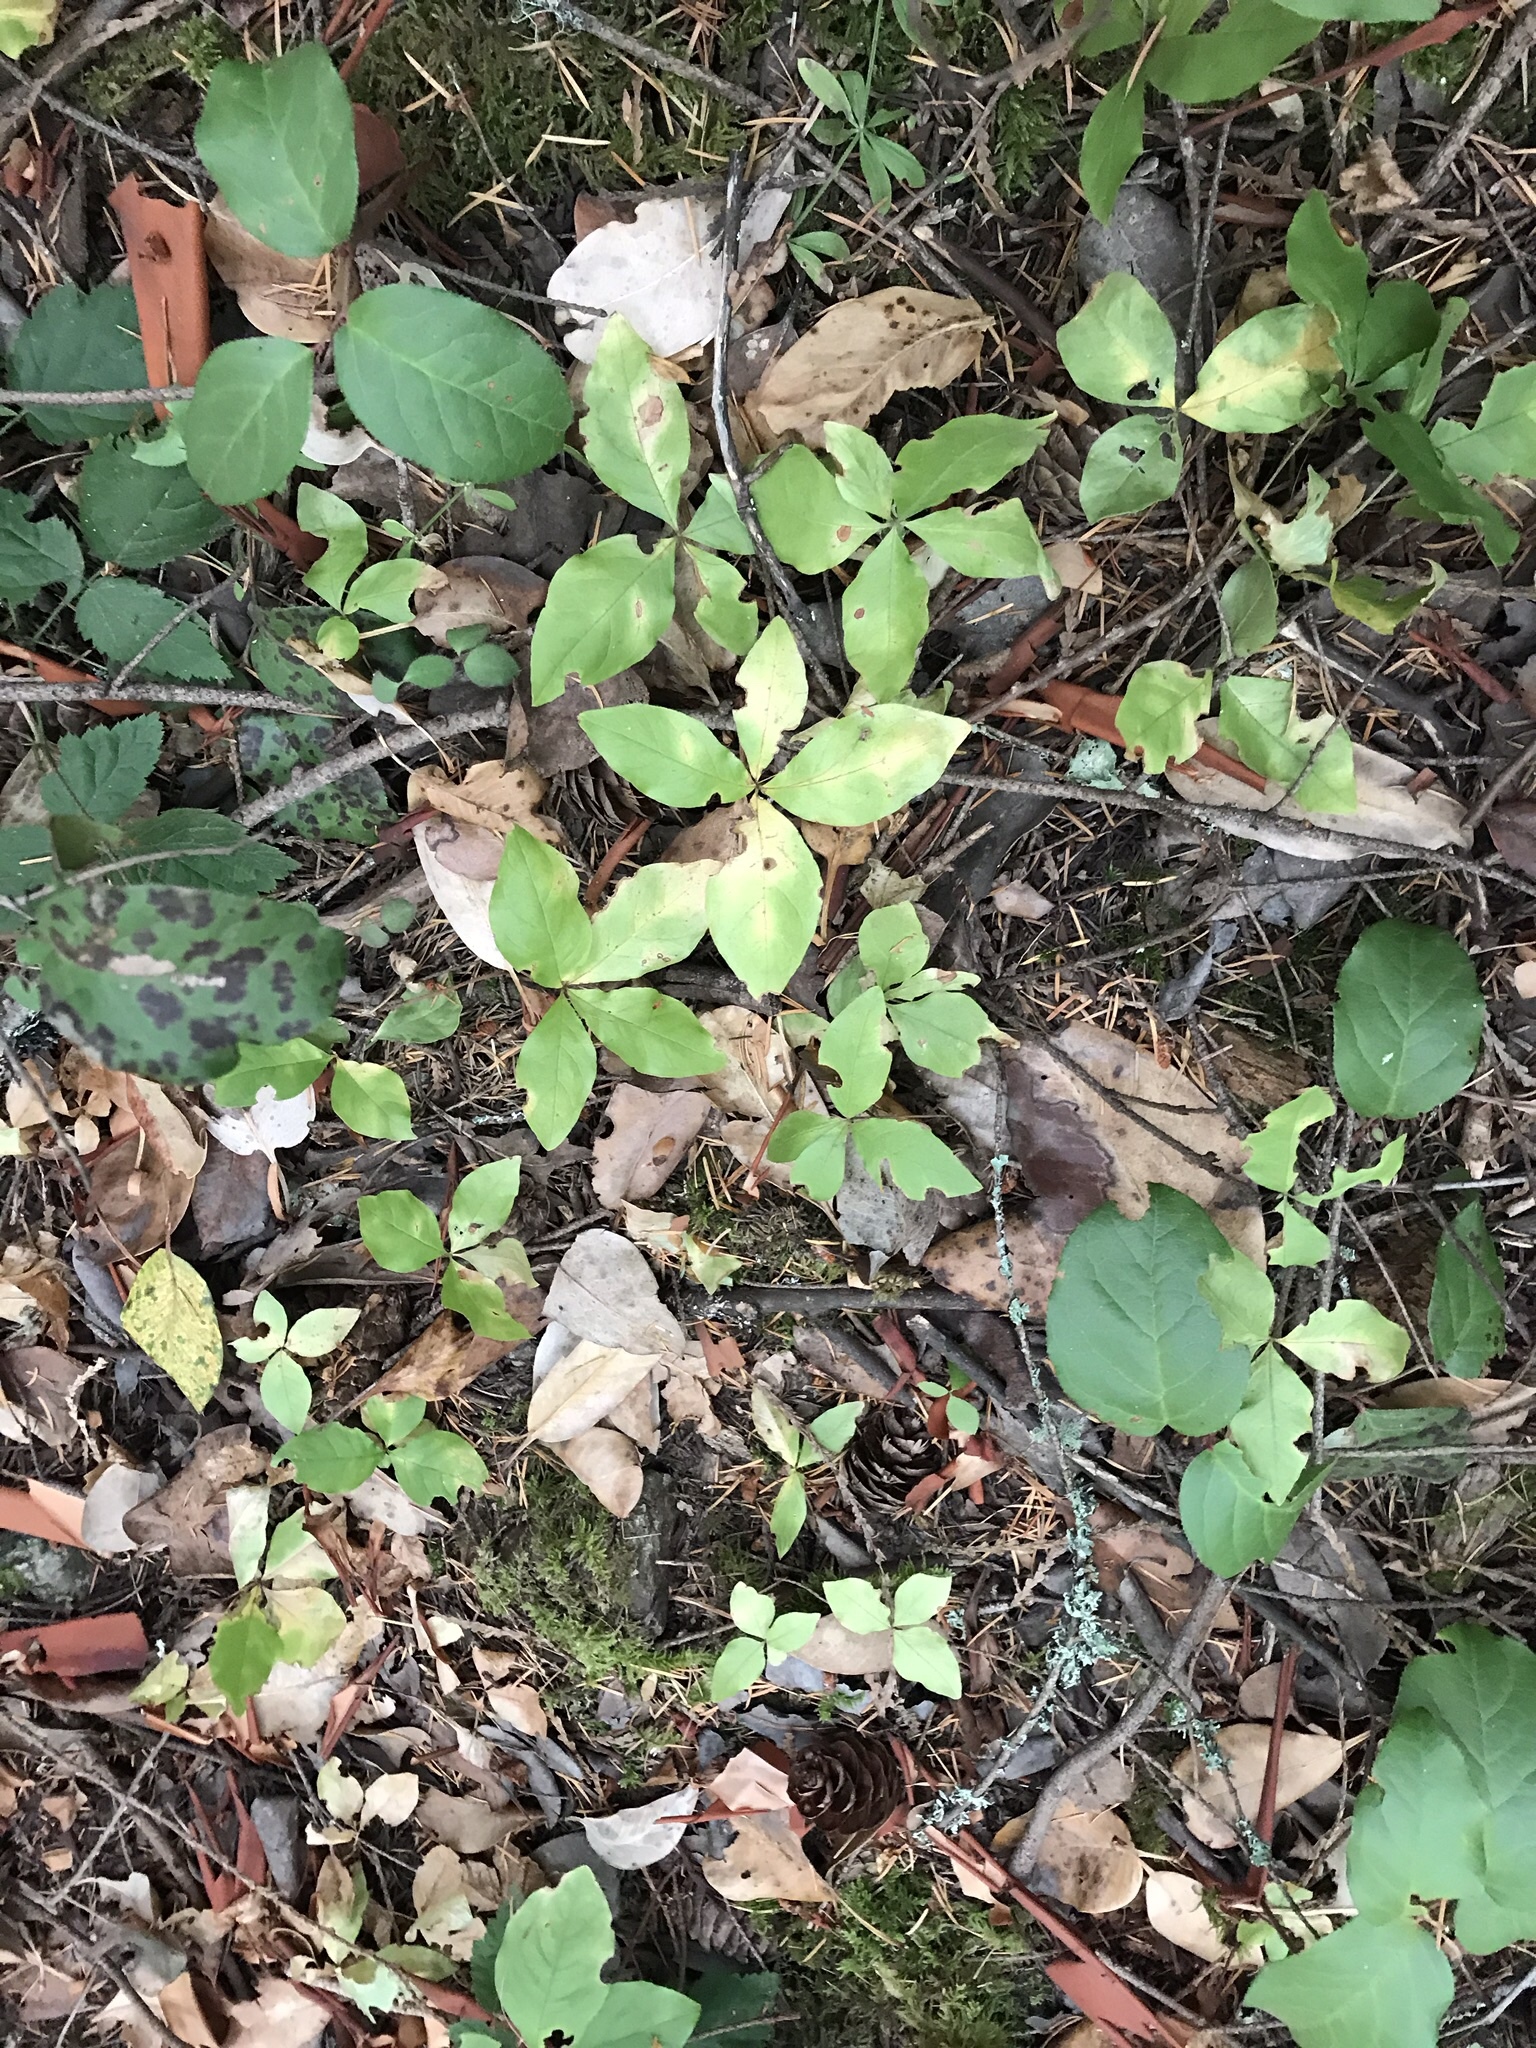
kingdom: Plantae
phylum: Tracheophyta
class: Magnoliopsida
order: Ericales
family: Primulaceae
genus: Lysimachia
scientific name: Lysimachia latifolia
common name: Pacific starflower
